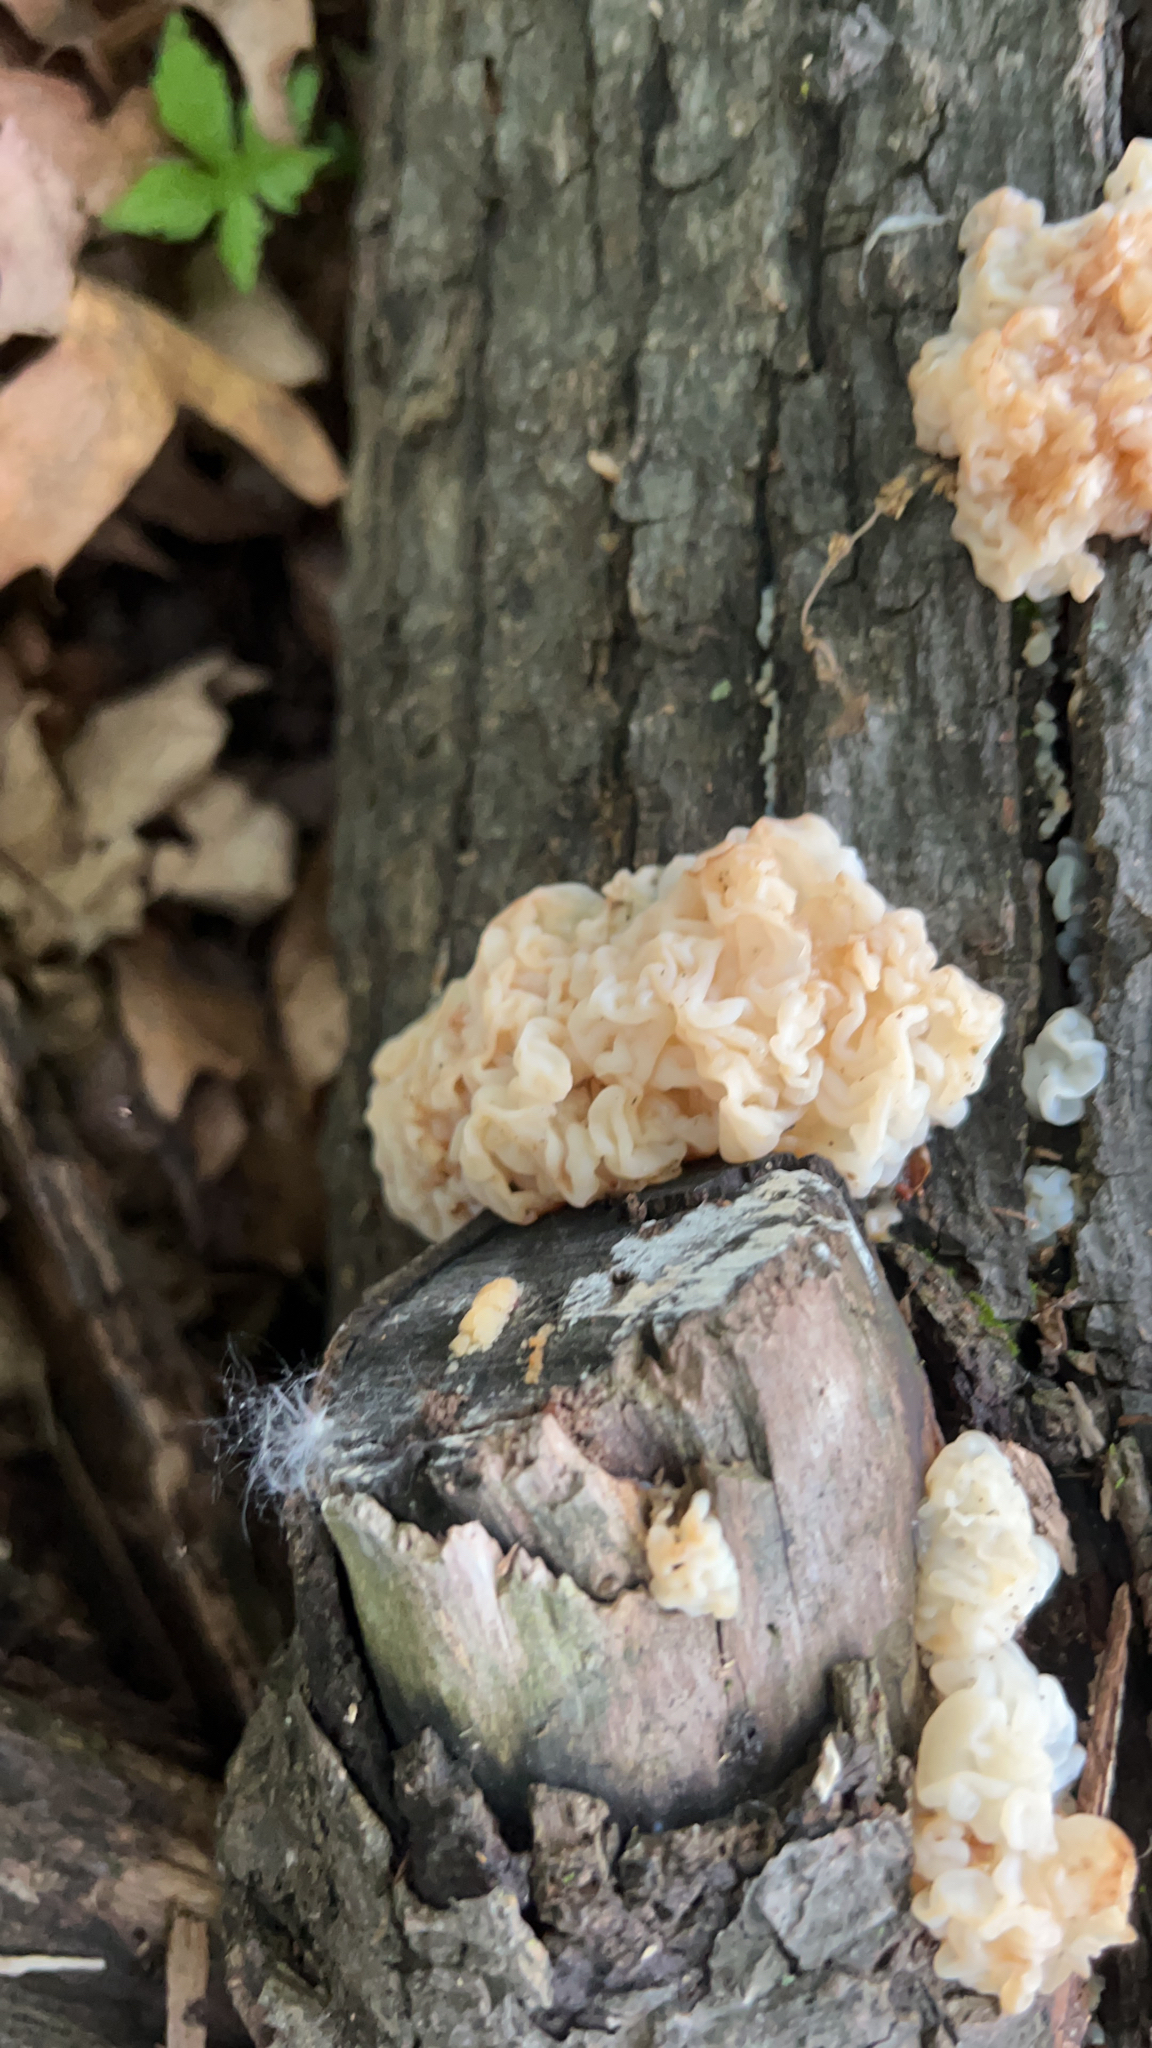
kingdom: Fungi
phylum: Basidiomycota
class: Agaricomycetes
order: Auriculariales
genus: Ductifera
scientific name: Ductifera pululahuana
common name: White jelly fungus
